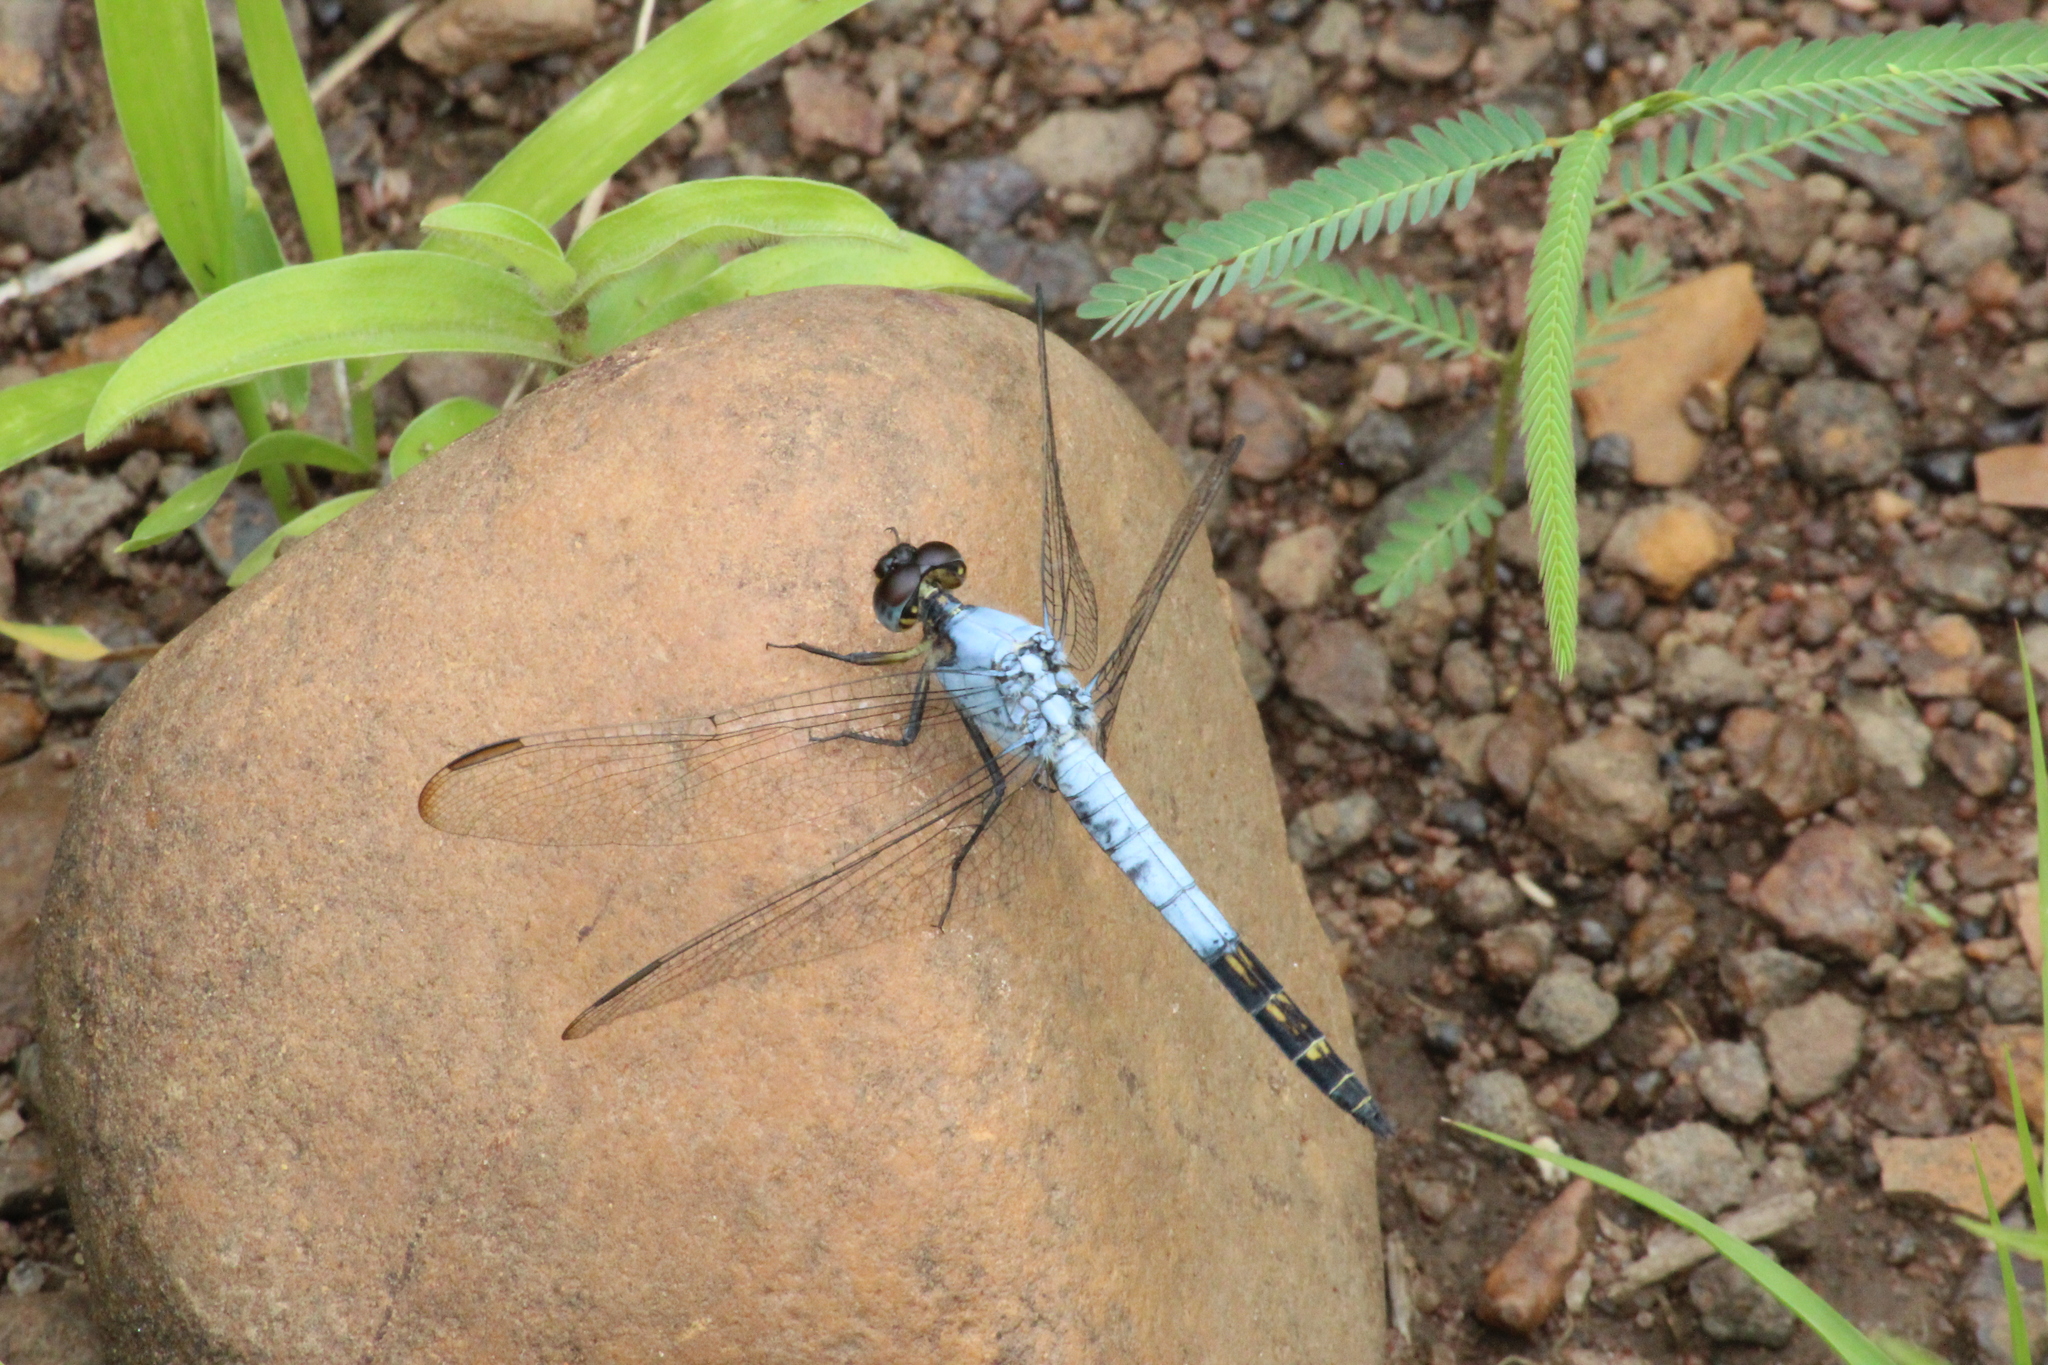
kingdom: Animalia
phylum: Arthropoda
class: Insecta
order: Odonata
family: Libellulidae
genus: Nesciothemis
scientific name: Nesciothemis farinosa
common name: Eastern blacktail
